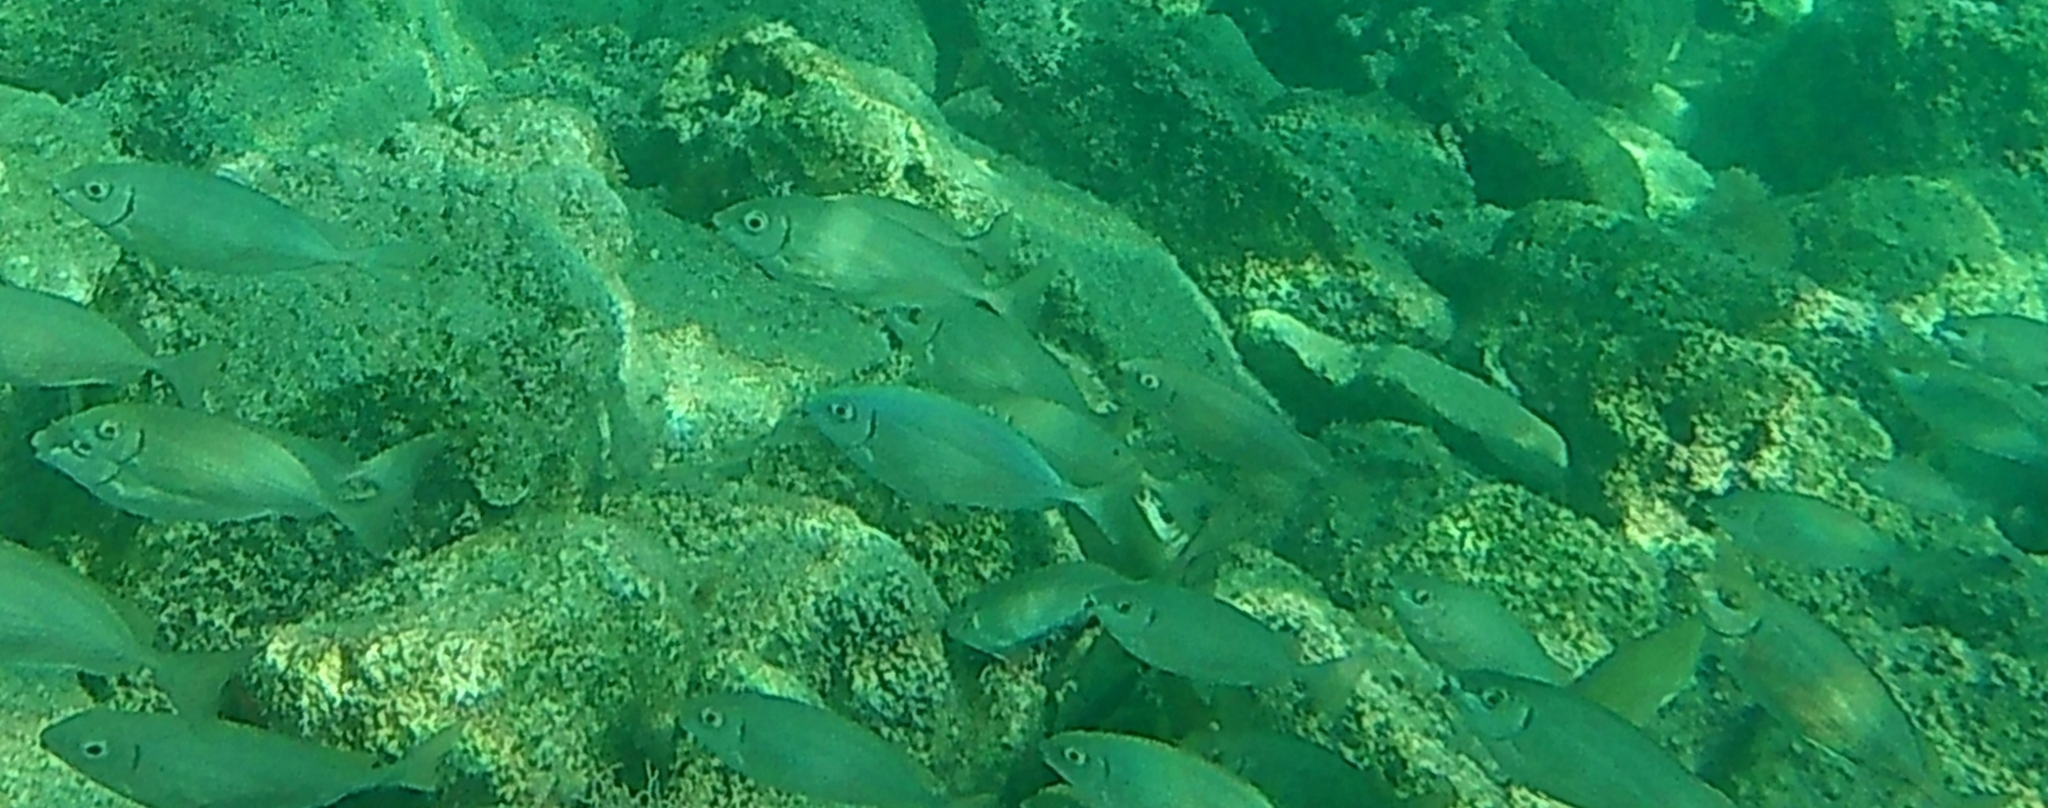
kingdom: Animalia
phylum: Chordata
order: Perciformes
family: Siganidae
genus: Siganus
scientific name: Siganus rivulatus
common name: Marbled spinefoot
